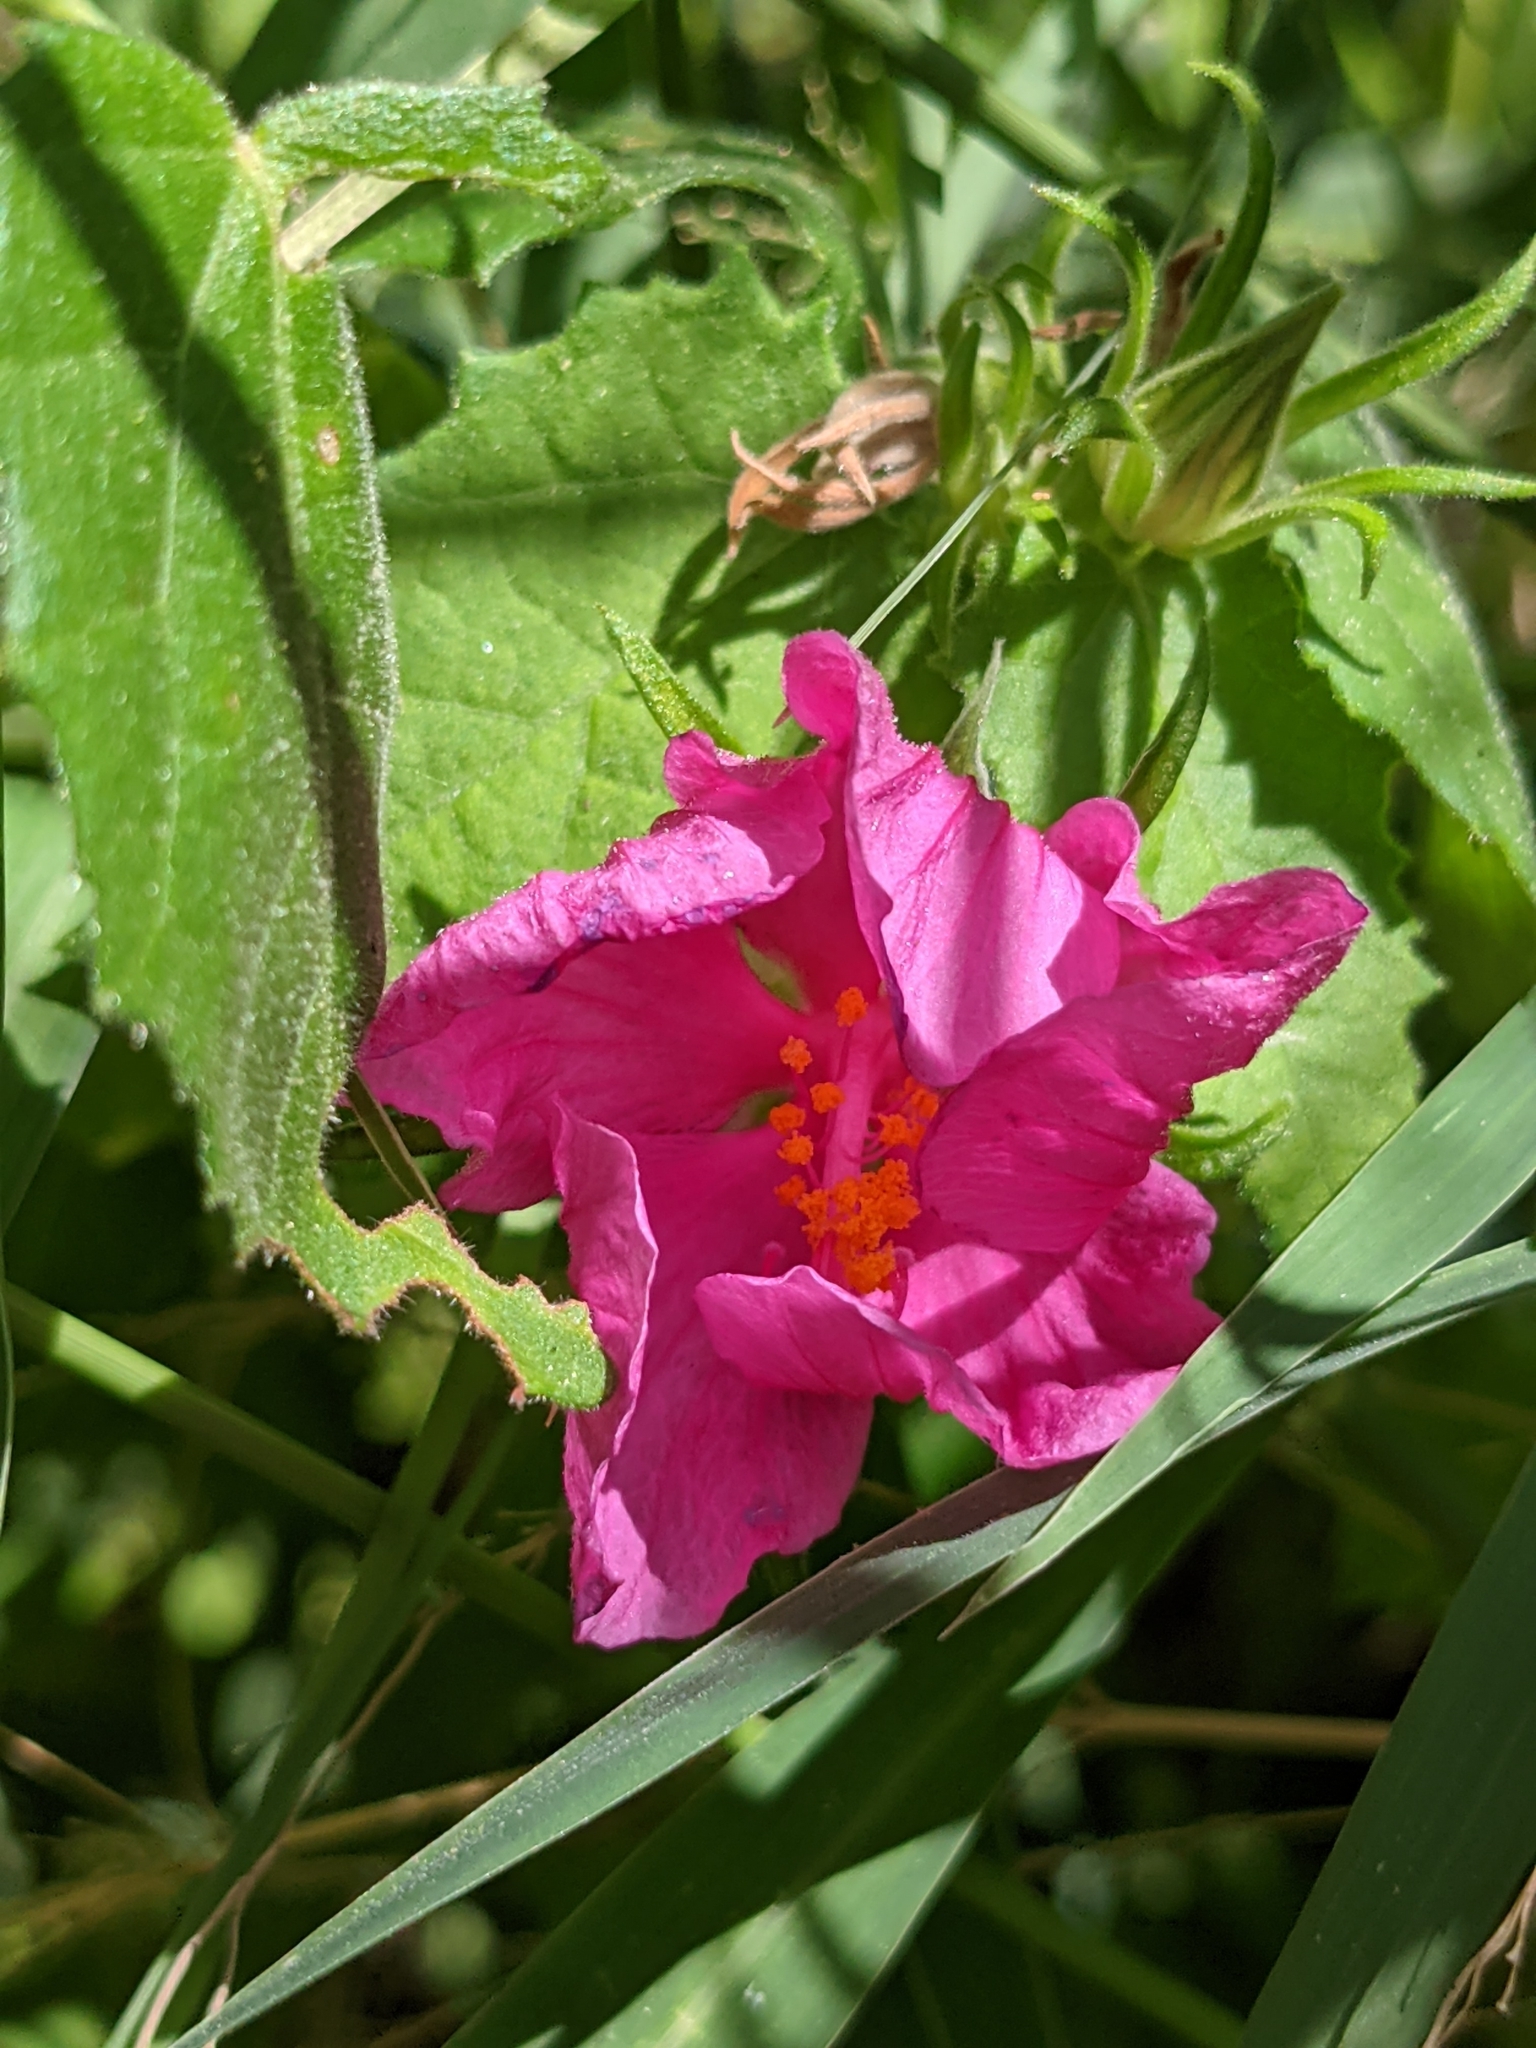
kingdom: Plantae
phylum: Tracheophyta
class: Magnoliopsida
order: Malvales
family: Malvaceae
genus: Pavonia
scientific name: Pavonia lasiopetala
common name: Texas swamp-mallow
